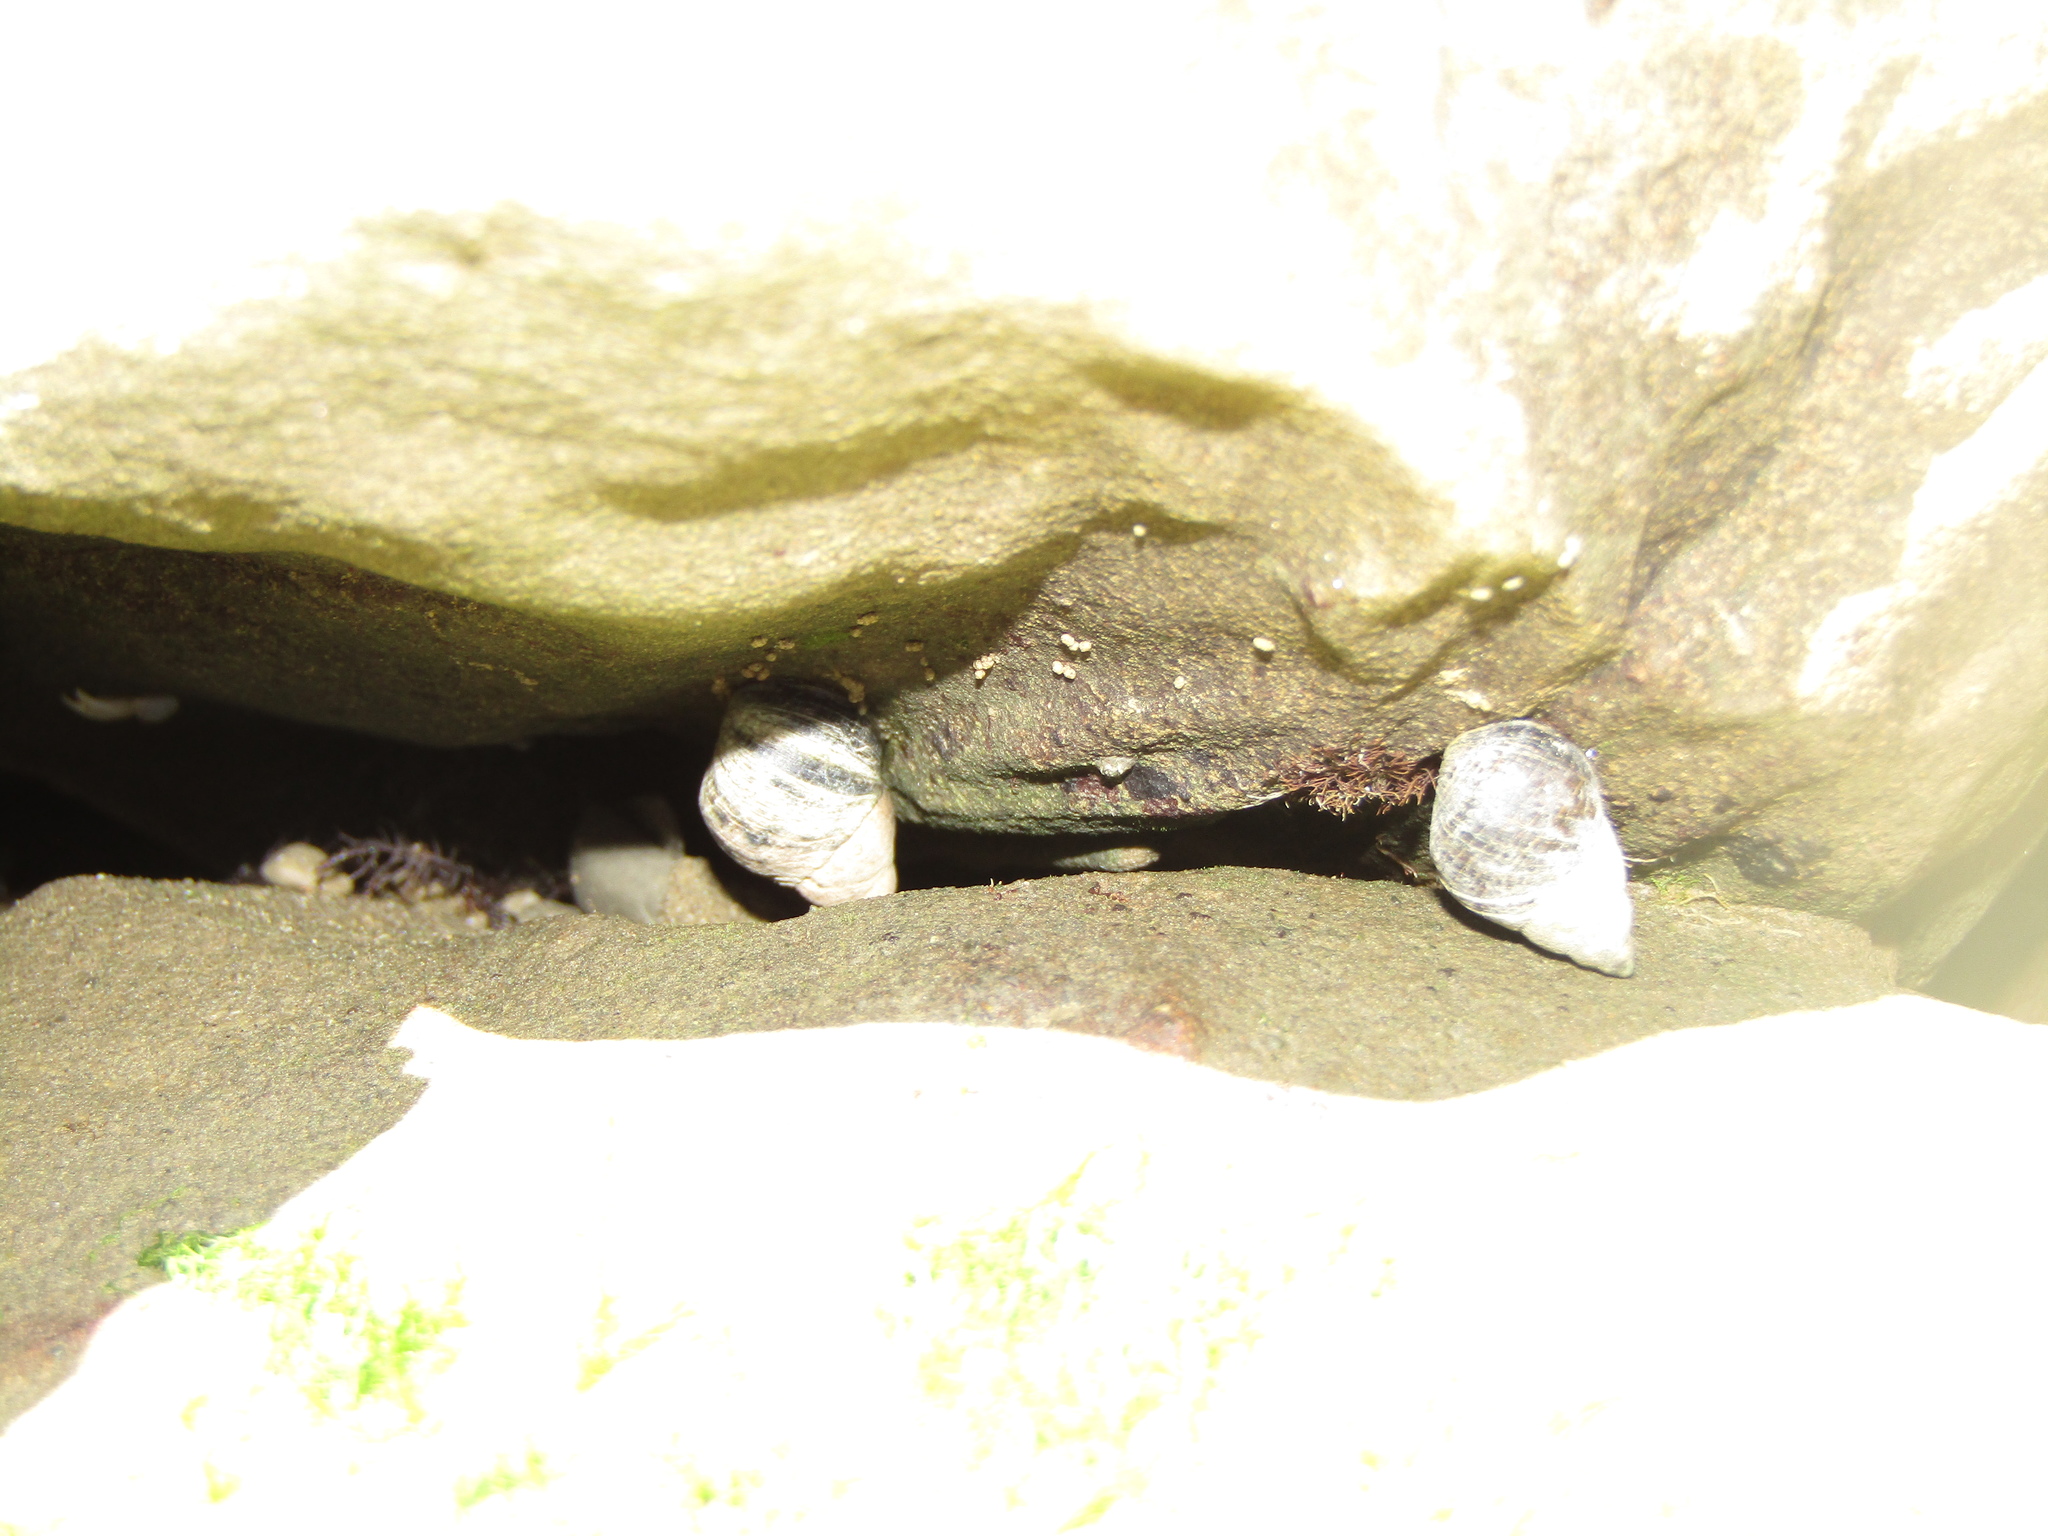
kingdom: Animalia
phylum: Mollusca
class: Gastropoda
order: Littorinimorpha
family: Littorinidae
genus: Austrolittorina
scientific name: Austrolittorina cincta
